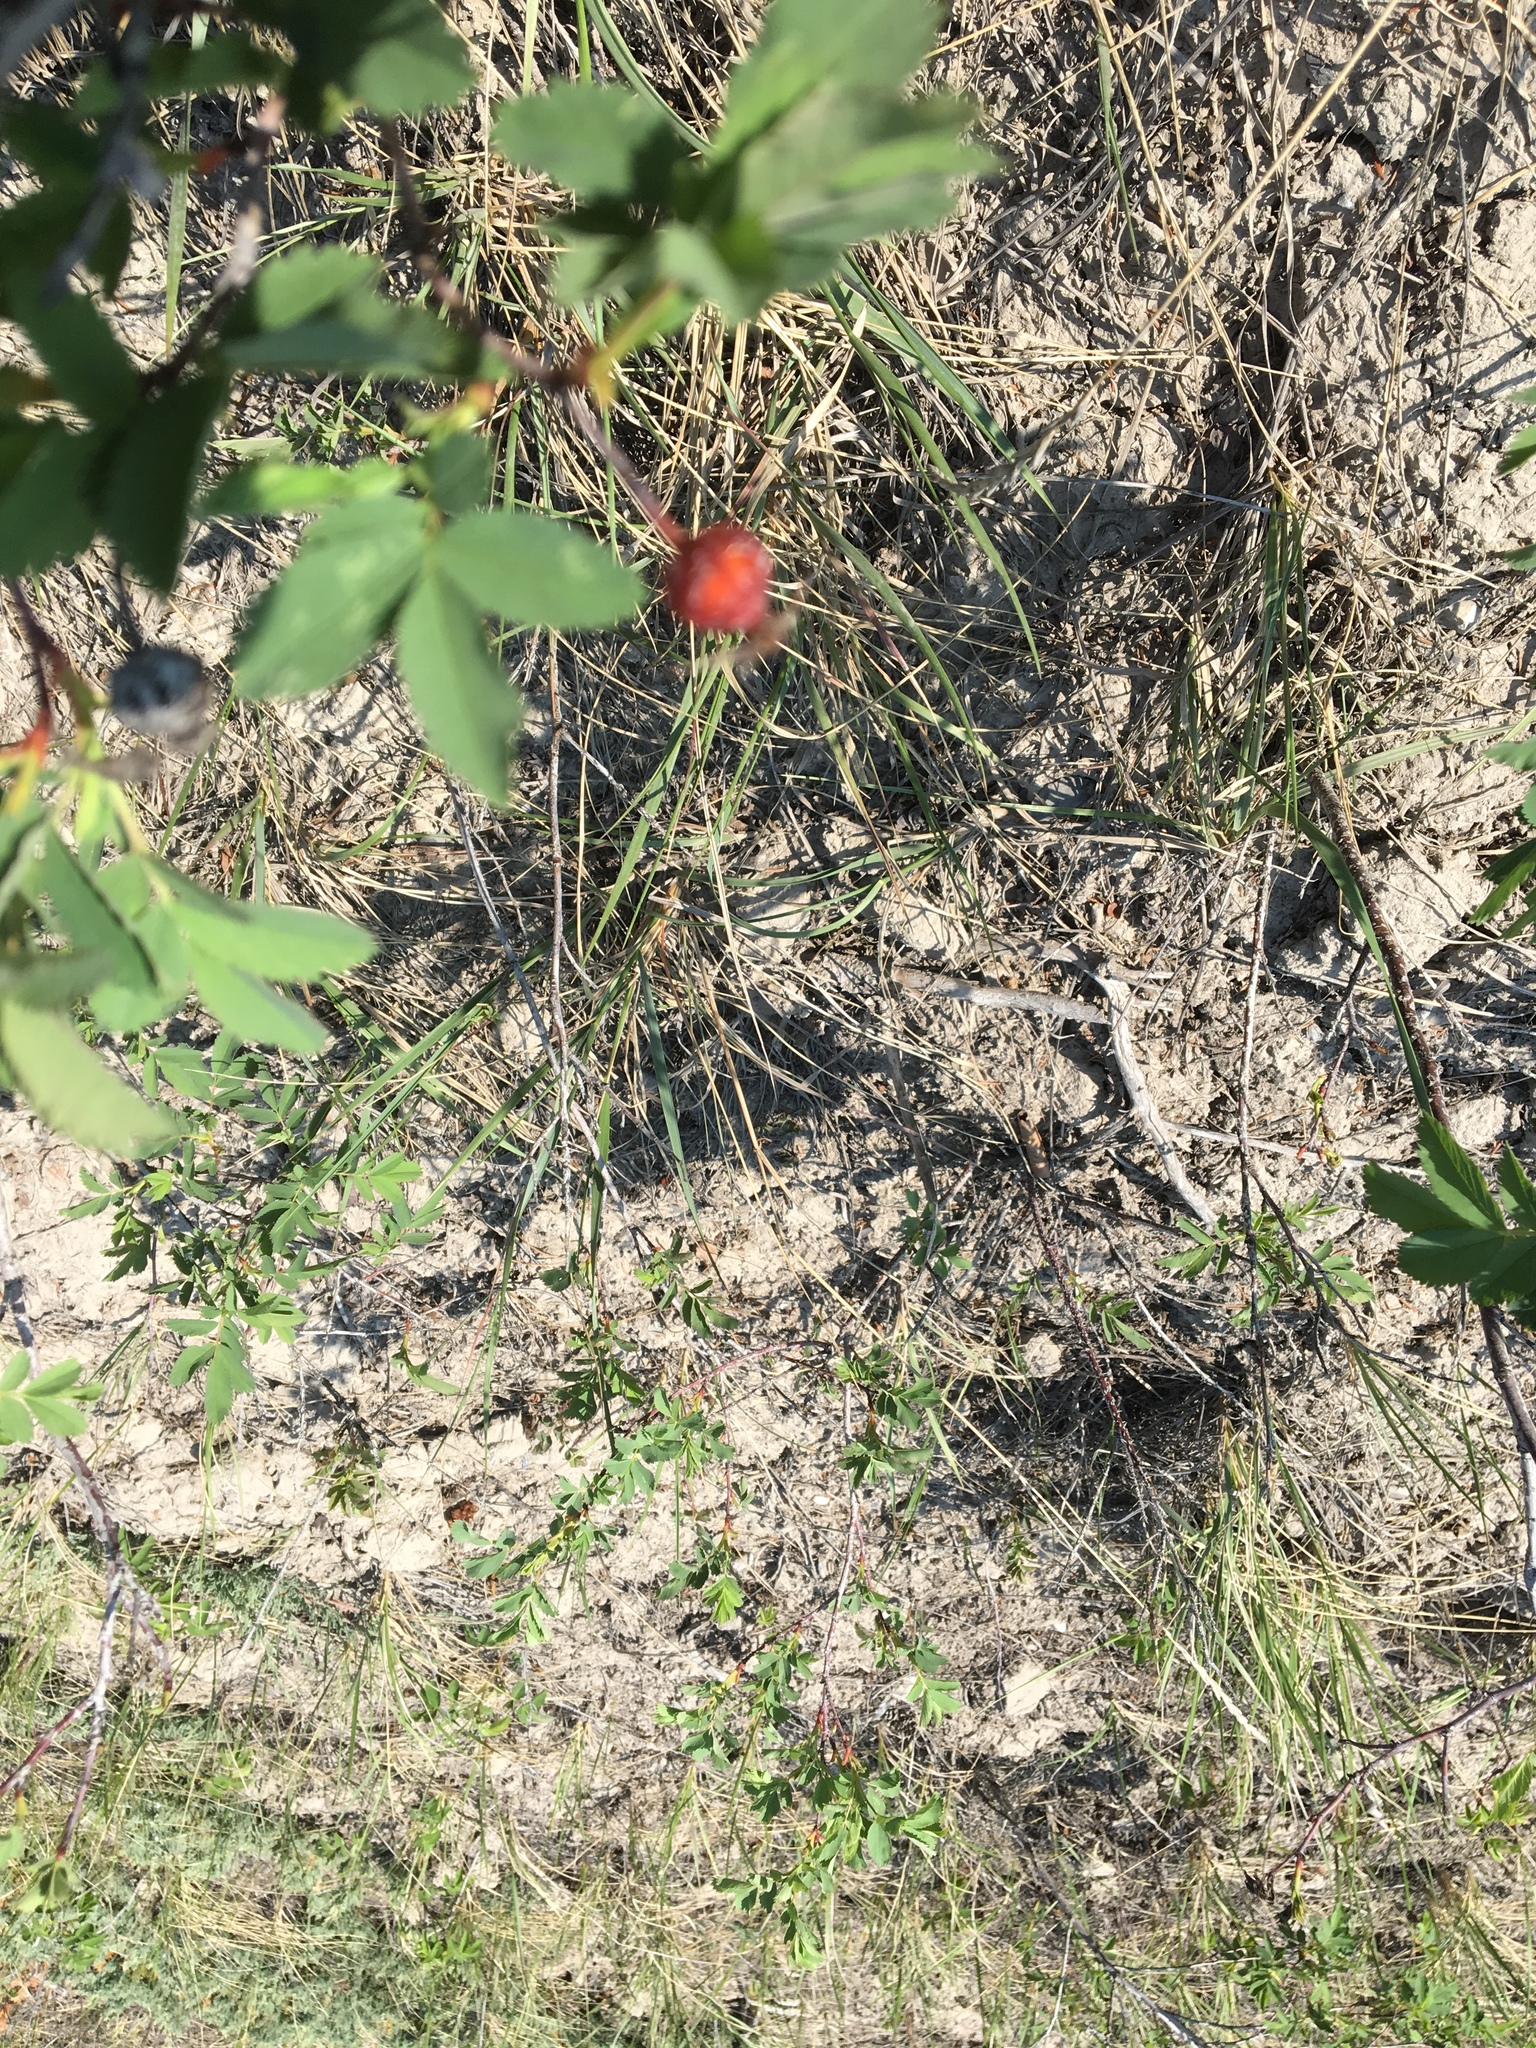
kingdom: Plantae
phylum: Tracheophyta
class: Magnoliopsida
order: Rosales
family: Rosaceae
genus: Rosa
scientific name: Rosa woodsii
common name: Woods's rose
